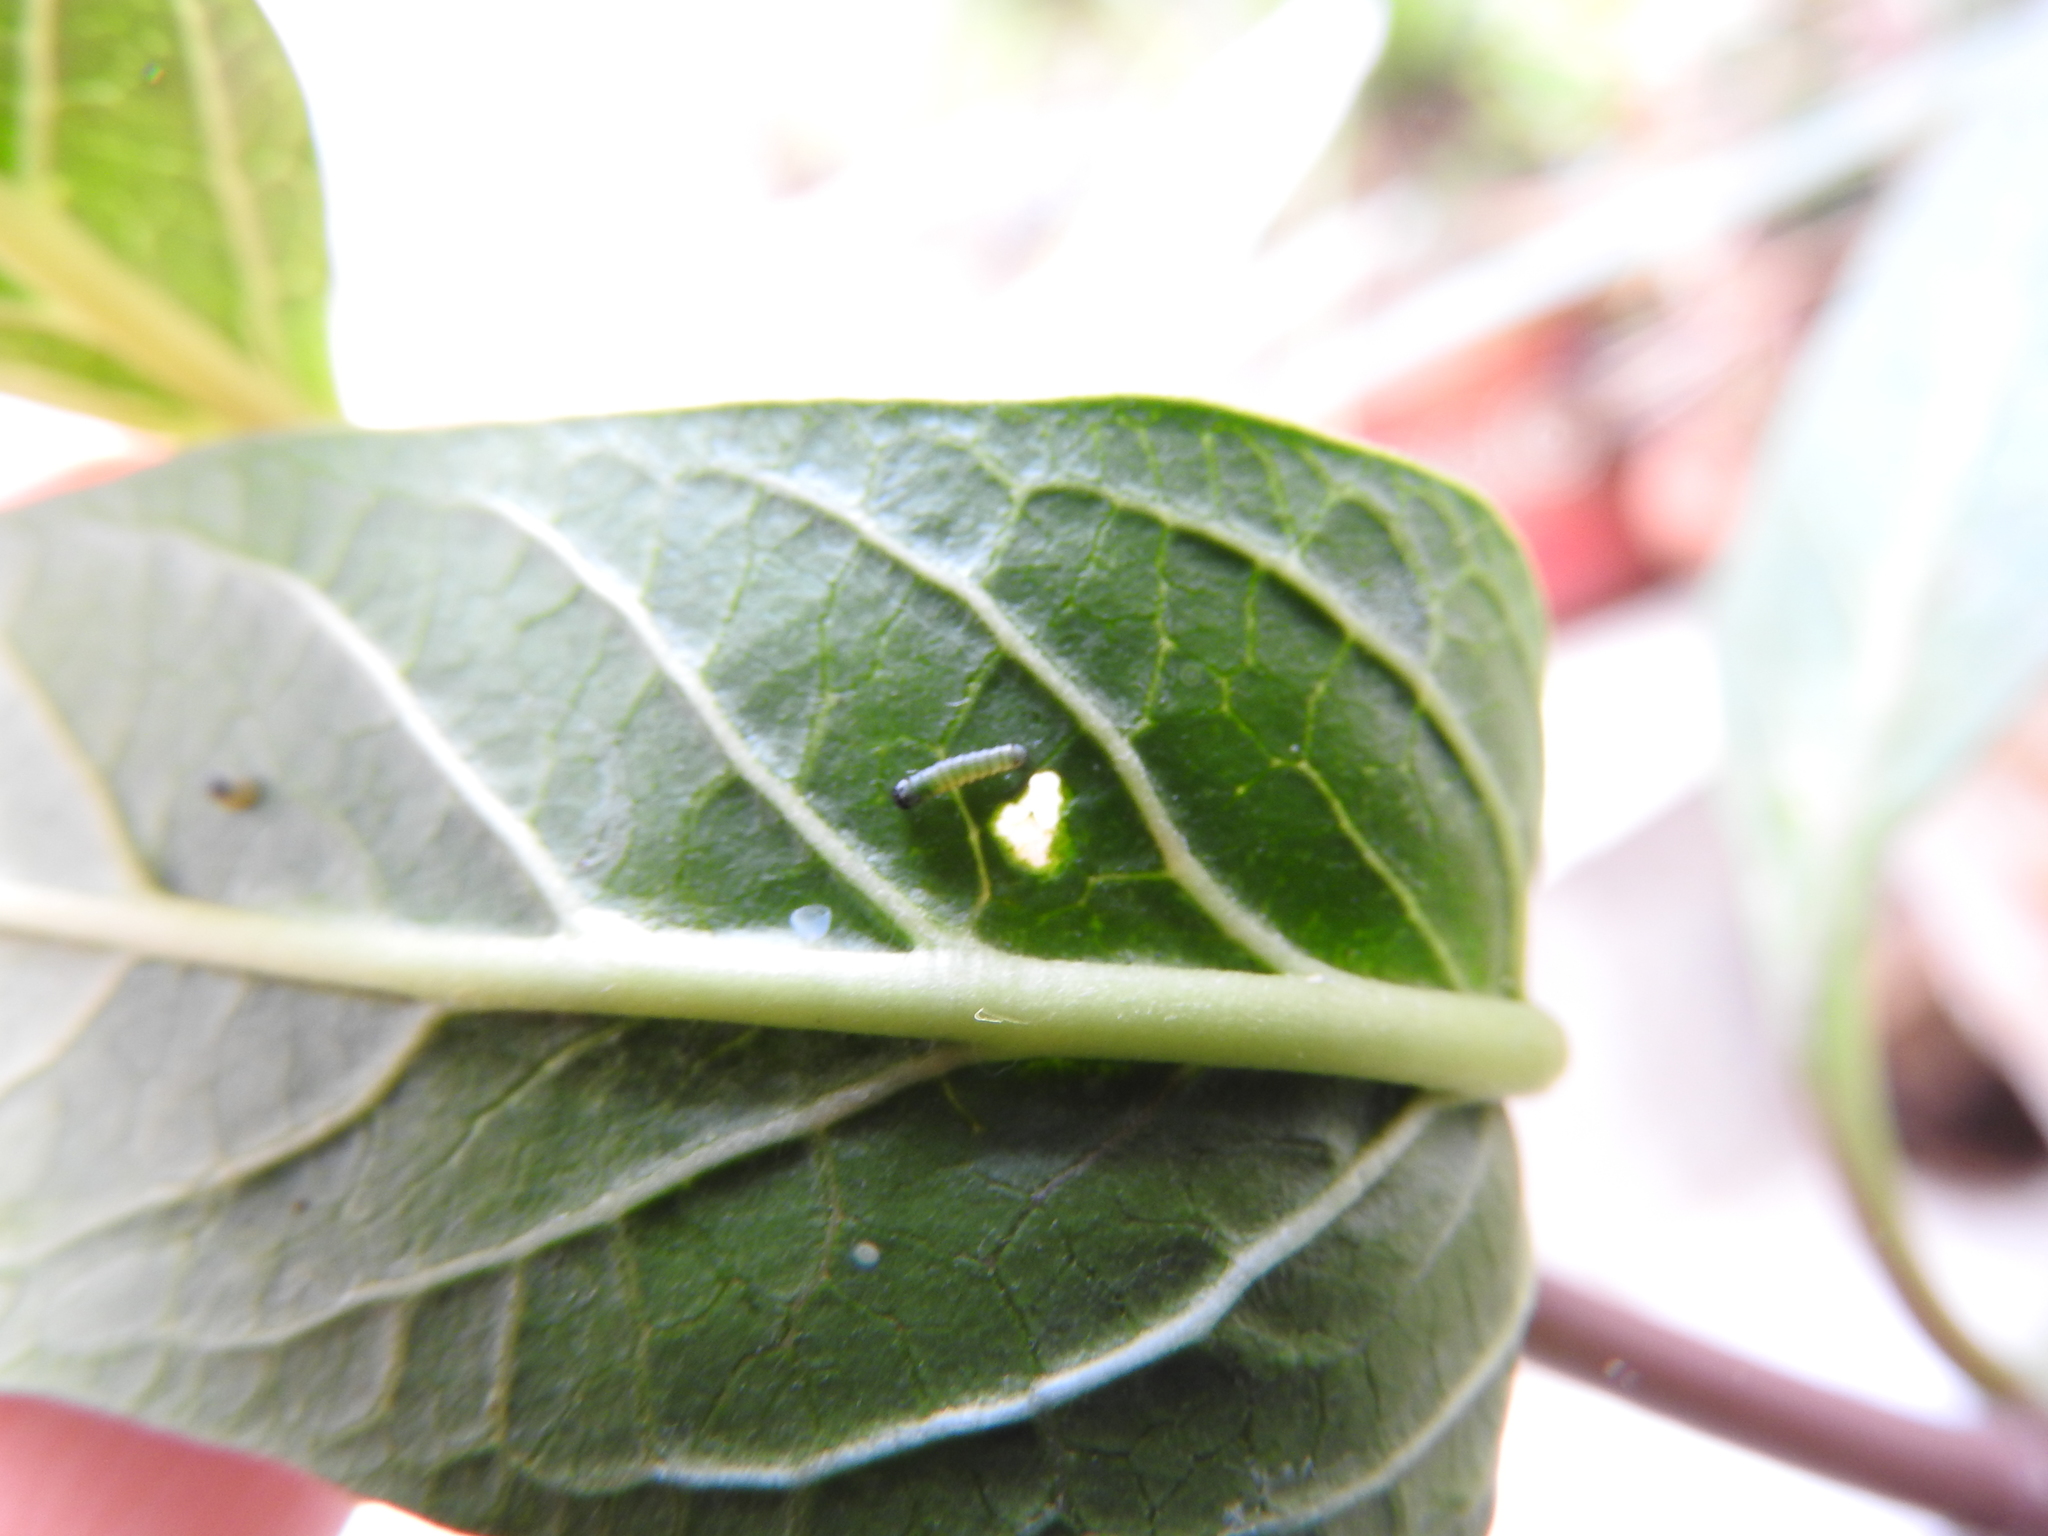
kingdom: Animalia
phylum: Arthropoda
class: Insecta
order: Lepidoptera
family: Nymphalidae
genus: Danaus
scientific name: Danaus plexippus
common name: Monarch
